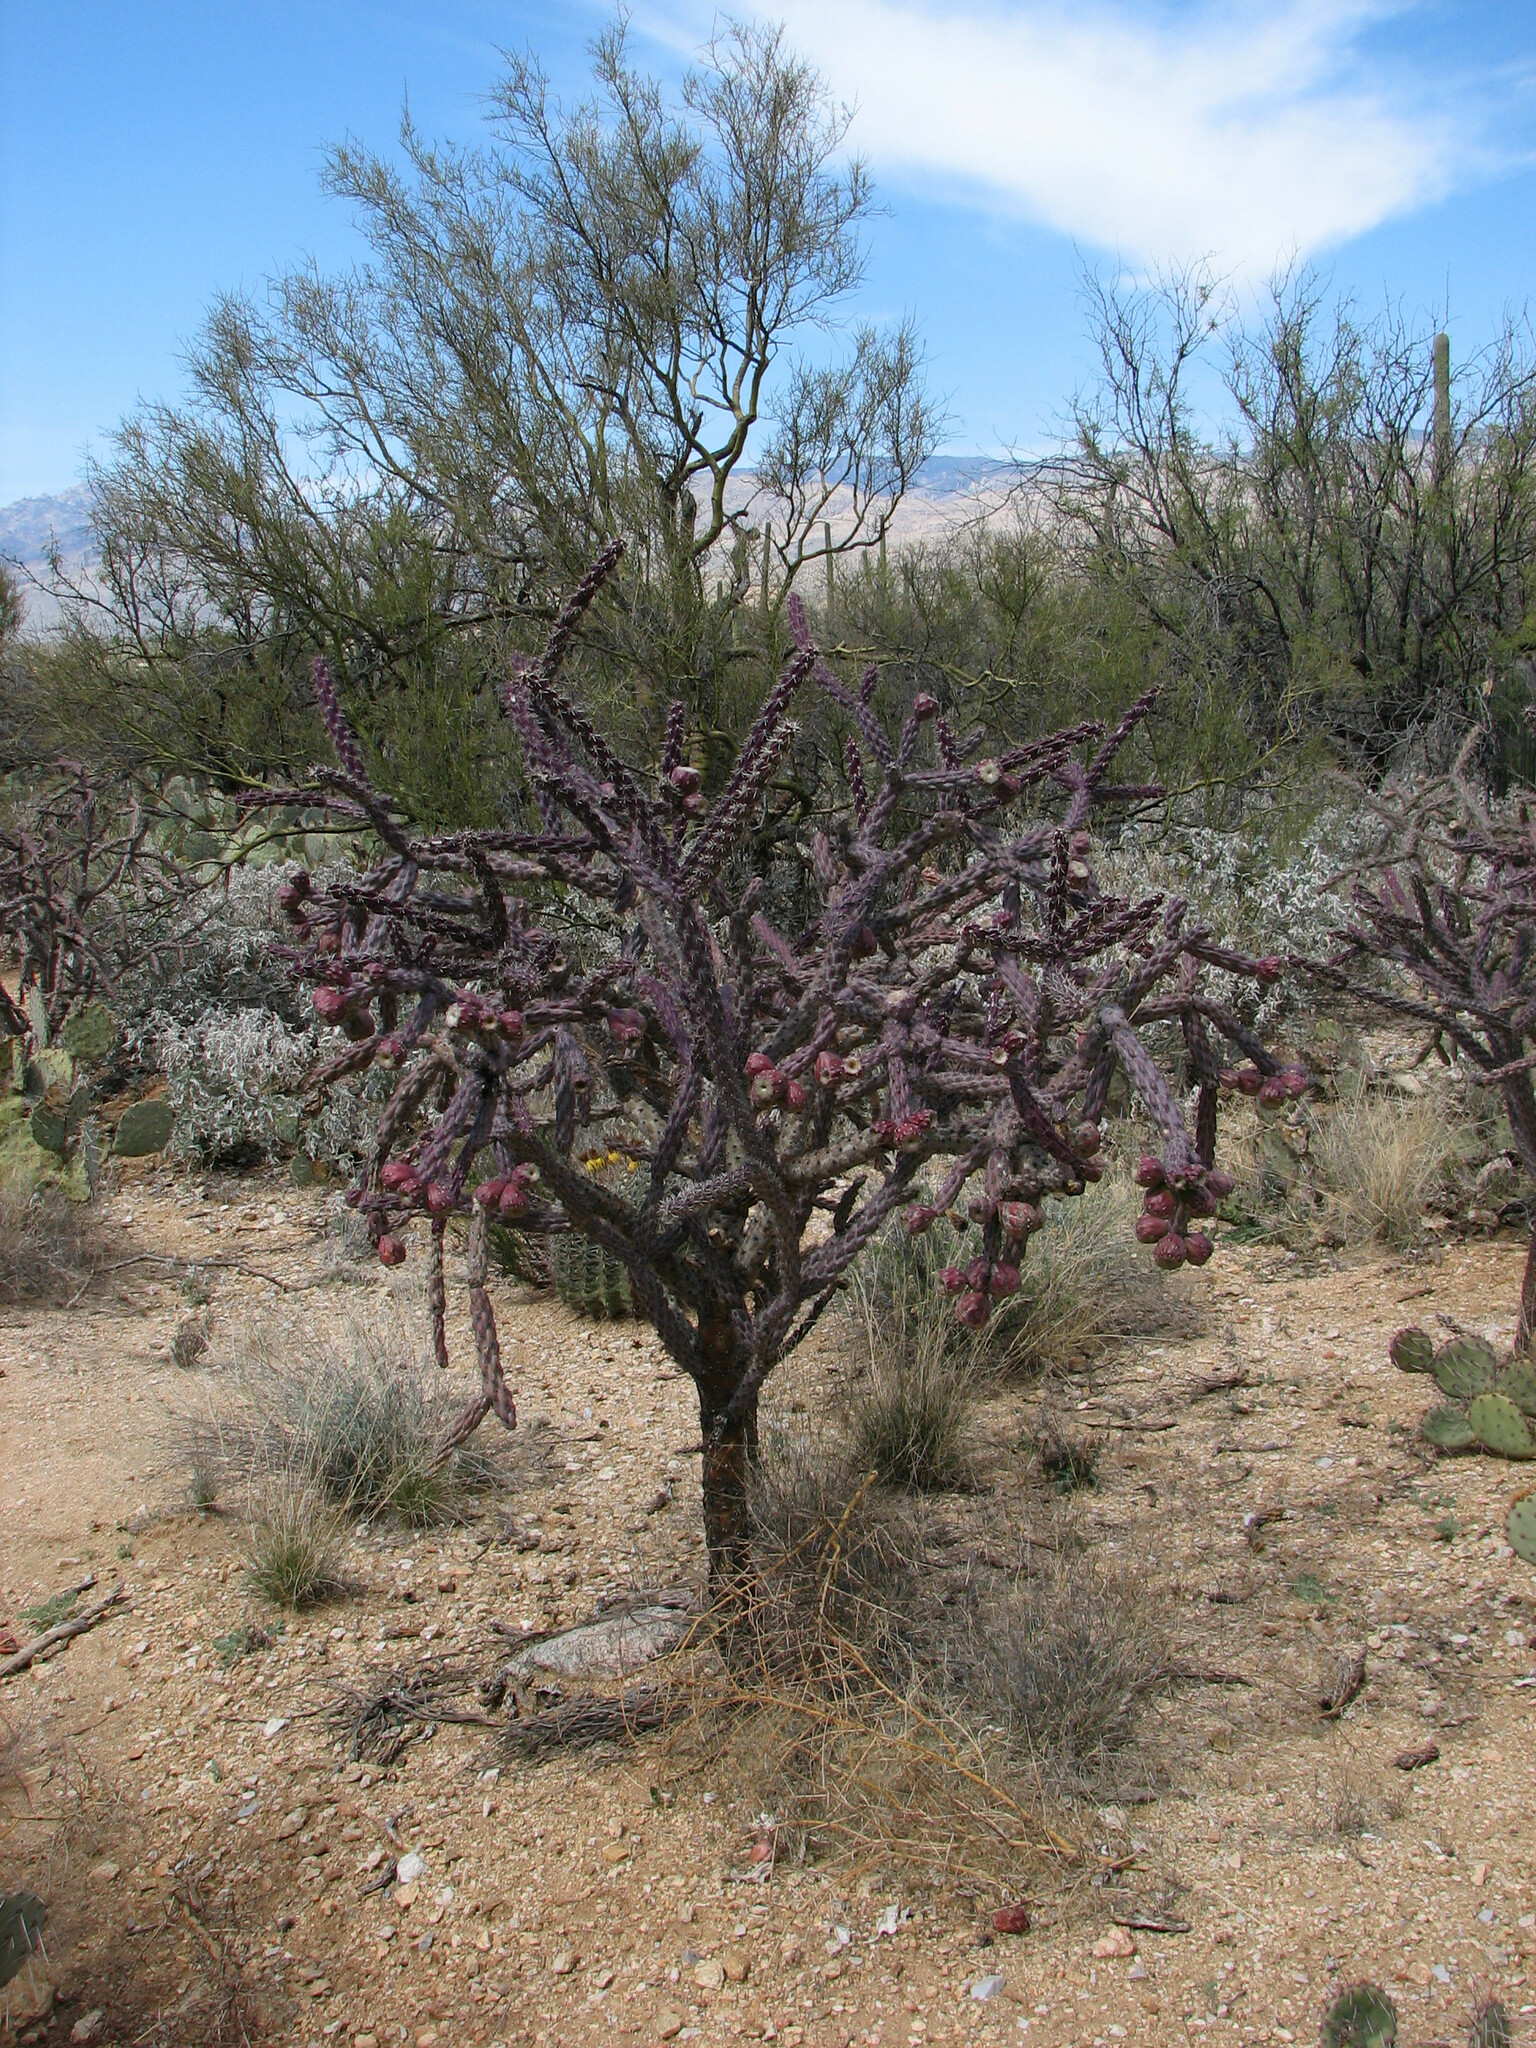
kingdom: Plantae
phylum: Tracheophyta
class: Magnoliopsida
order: Caryophyllales
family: Cactaceae
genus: Cylindropuntia
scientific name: Cylindropuntia thurberi
